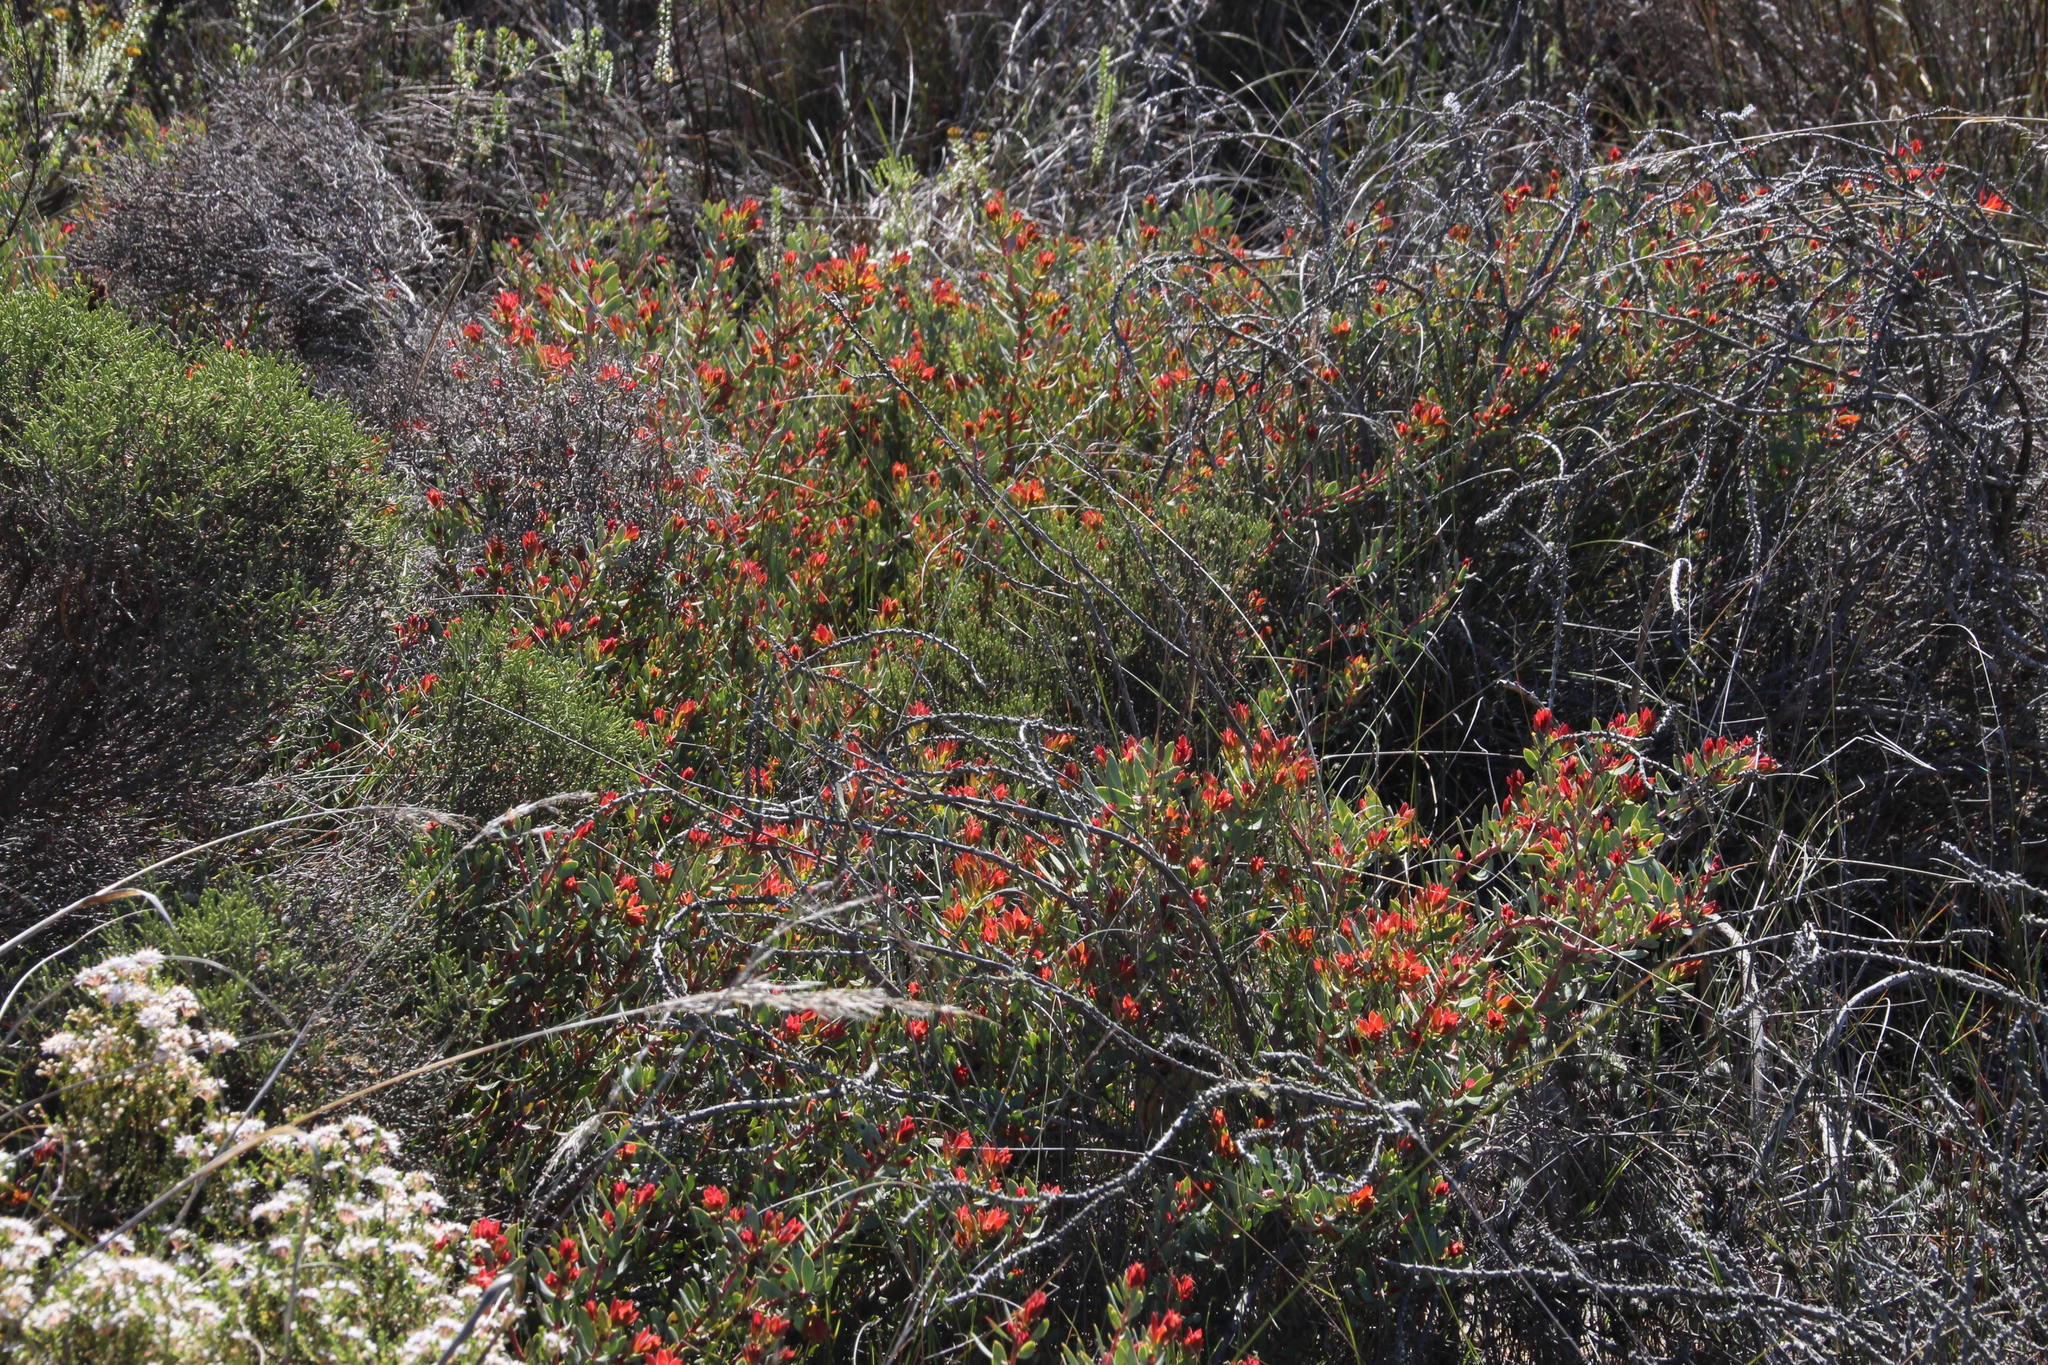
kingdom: Plantae
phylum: Tracheophyta
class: Magnoliopsida
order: Proteales
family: Proteaceae
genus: Protea
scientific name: Protea sulphurea
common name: Sulphur sugarbush
